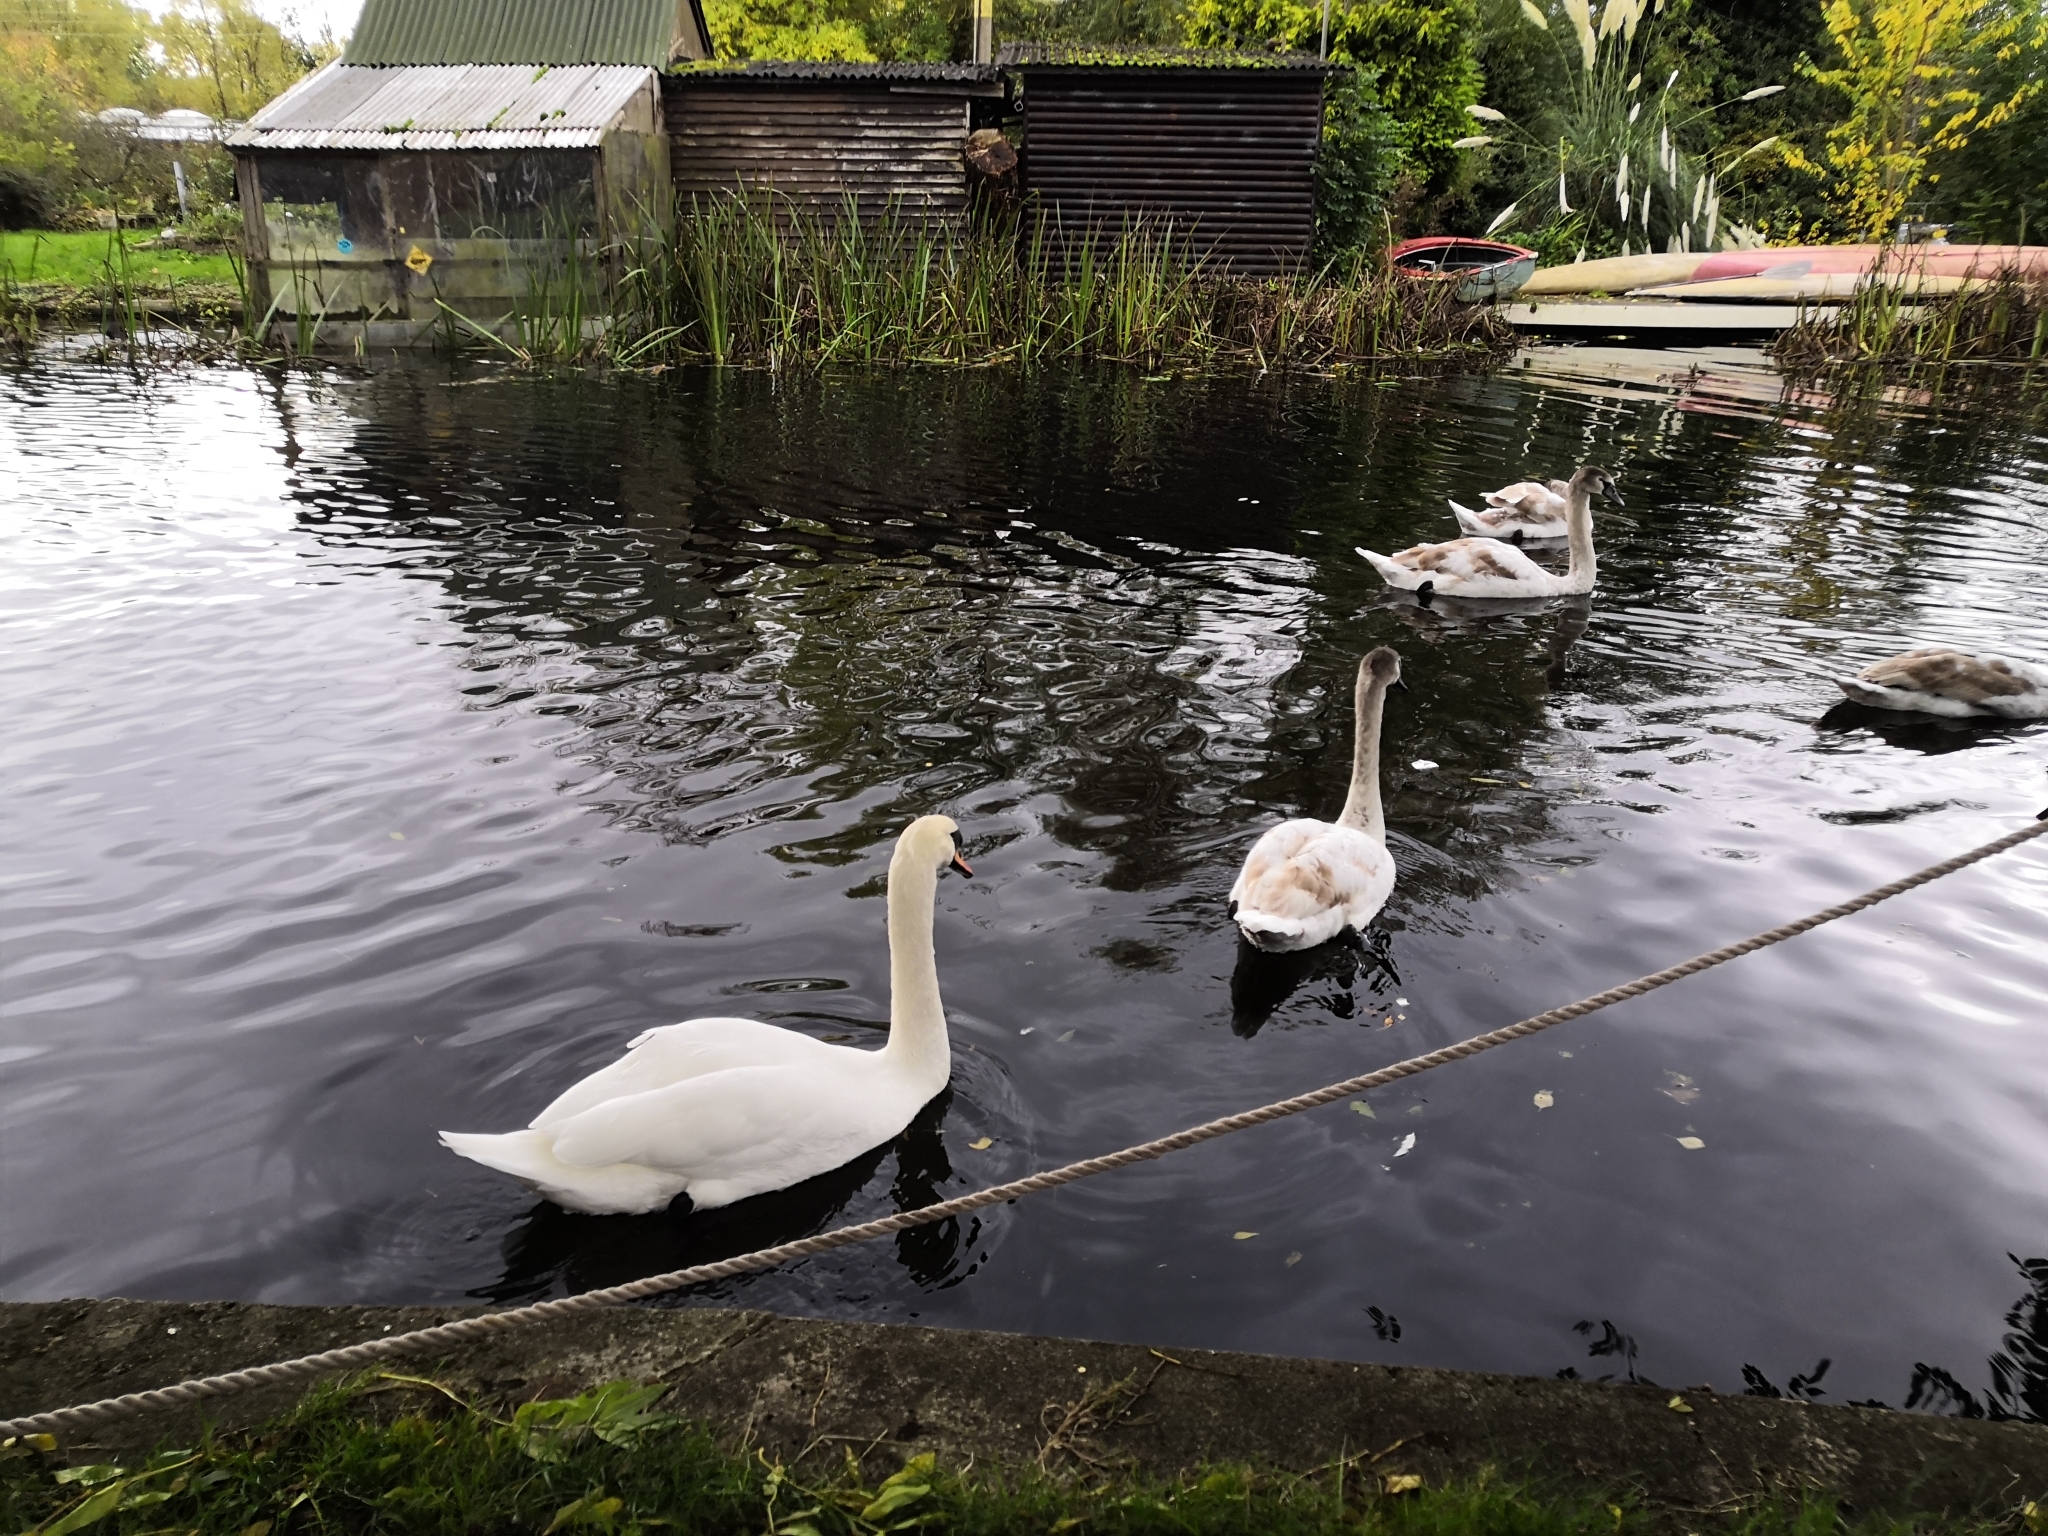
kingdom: Animalia
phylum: Chordata
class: Aves
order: Anseriformes
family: Anatidae
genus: Cygnus
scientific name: Cygnus olor
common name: Mute swan
